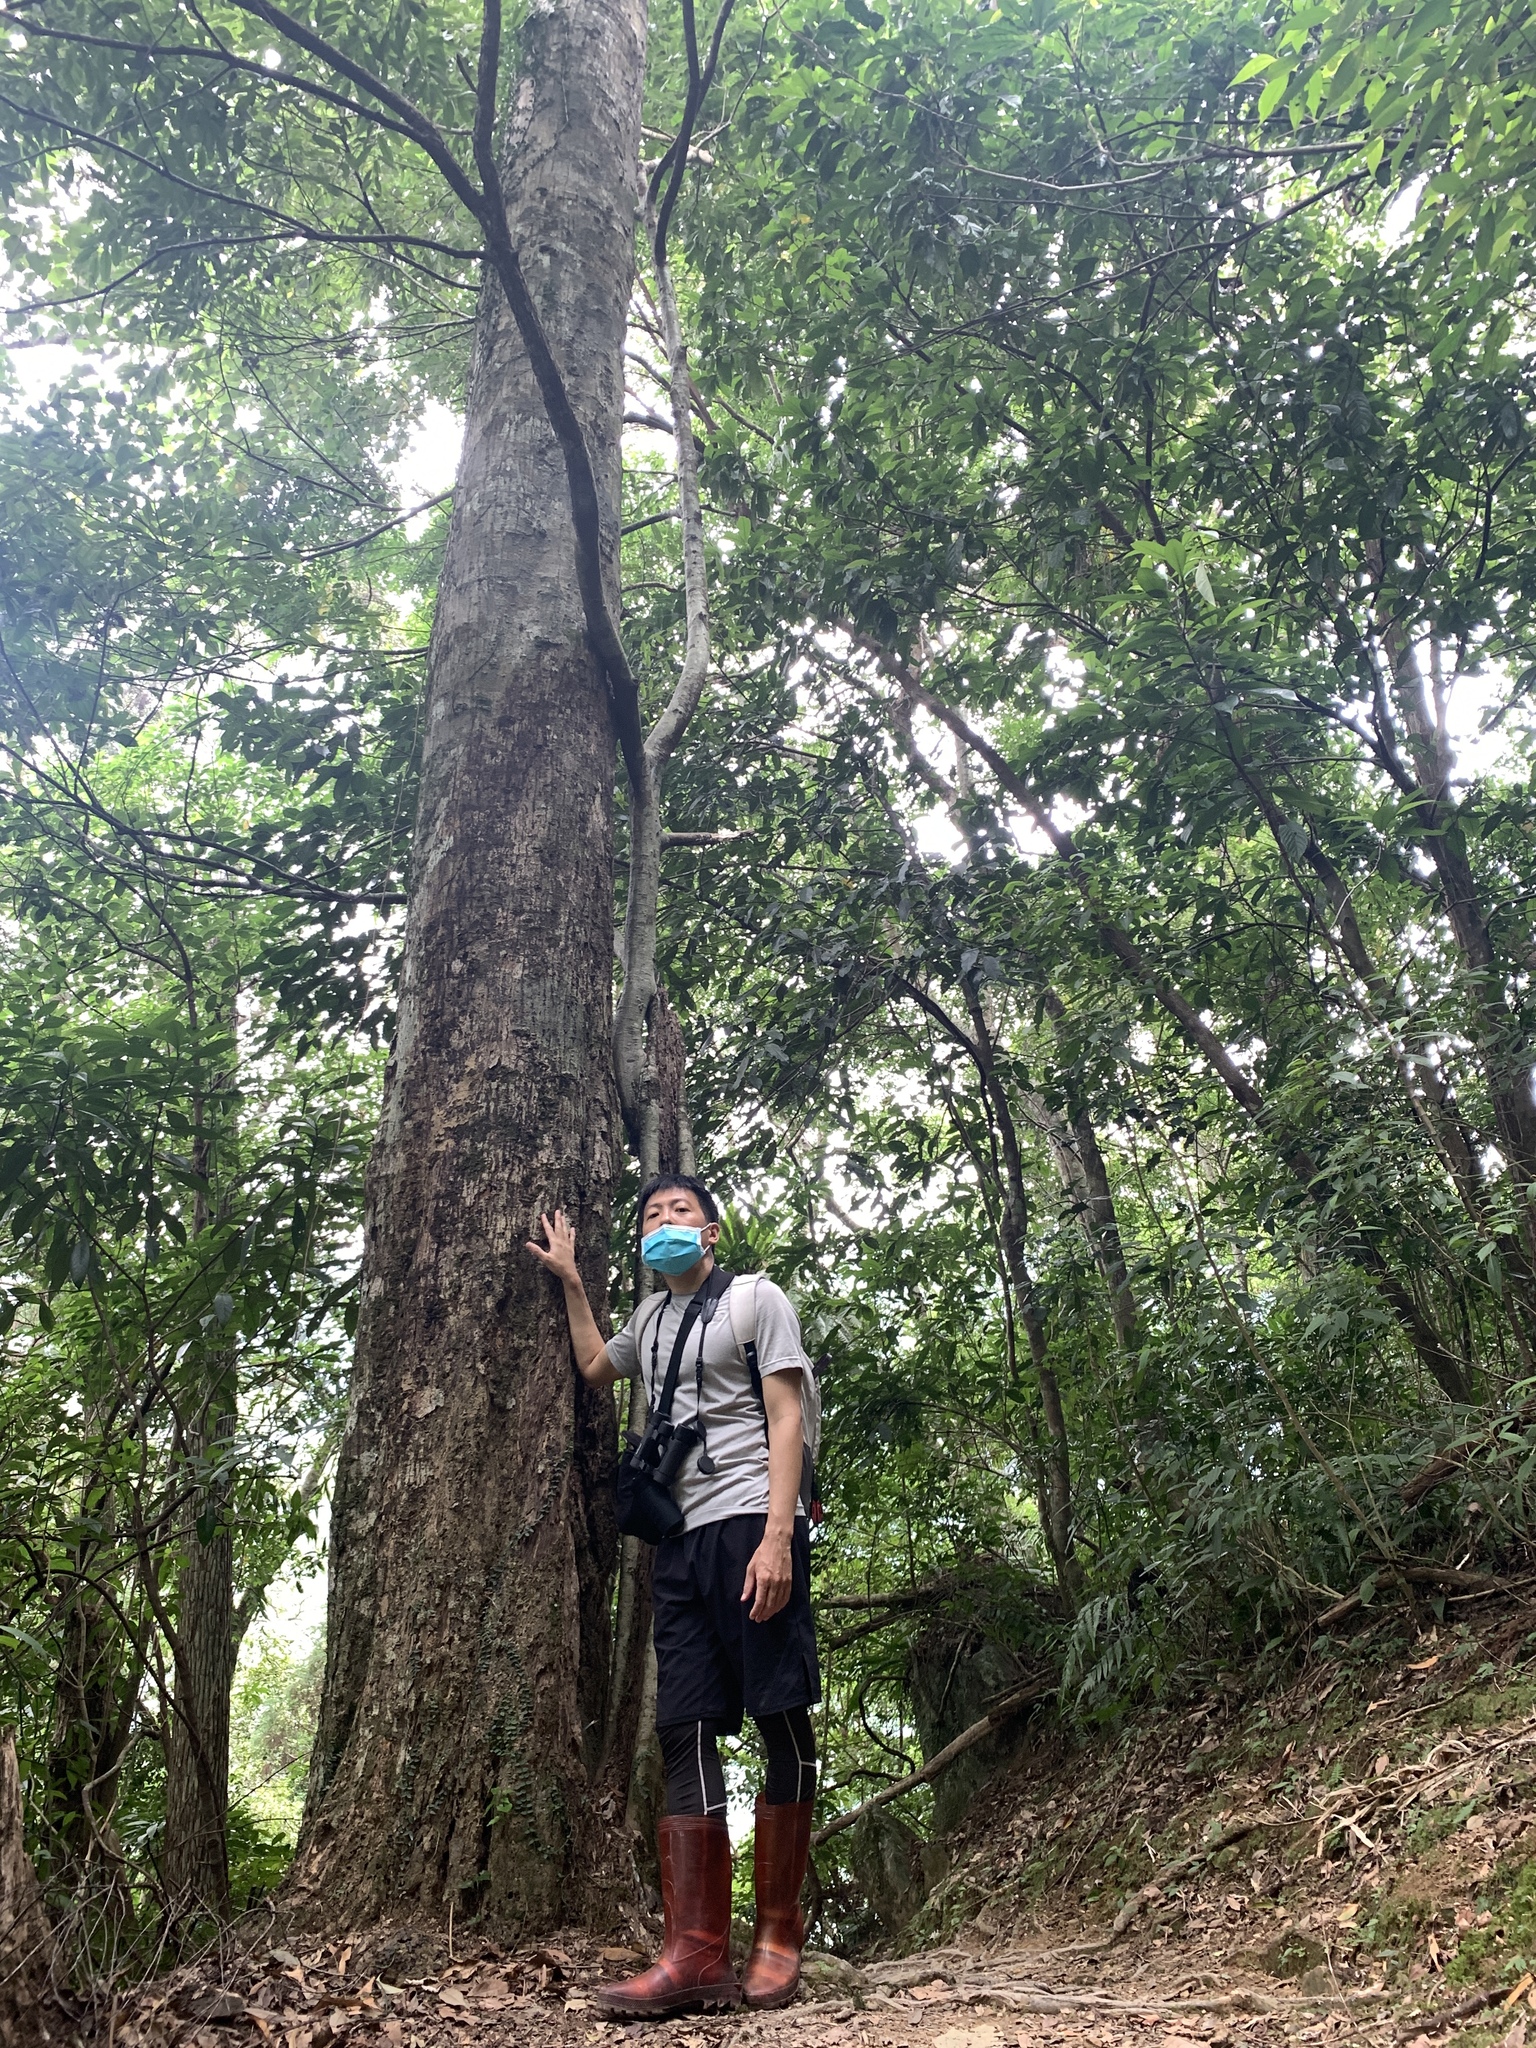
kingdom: Plantae
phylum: Tracheophyta
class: Magnoliopsida
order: Fagales
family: Fagaceae
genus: Castanopsis
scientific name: Castanopsis carlesii
